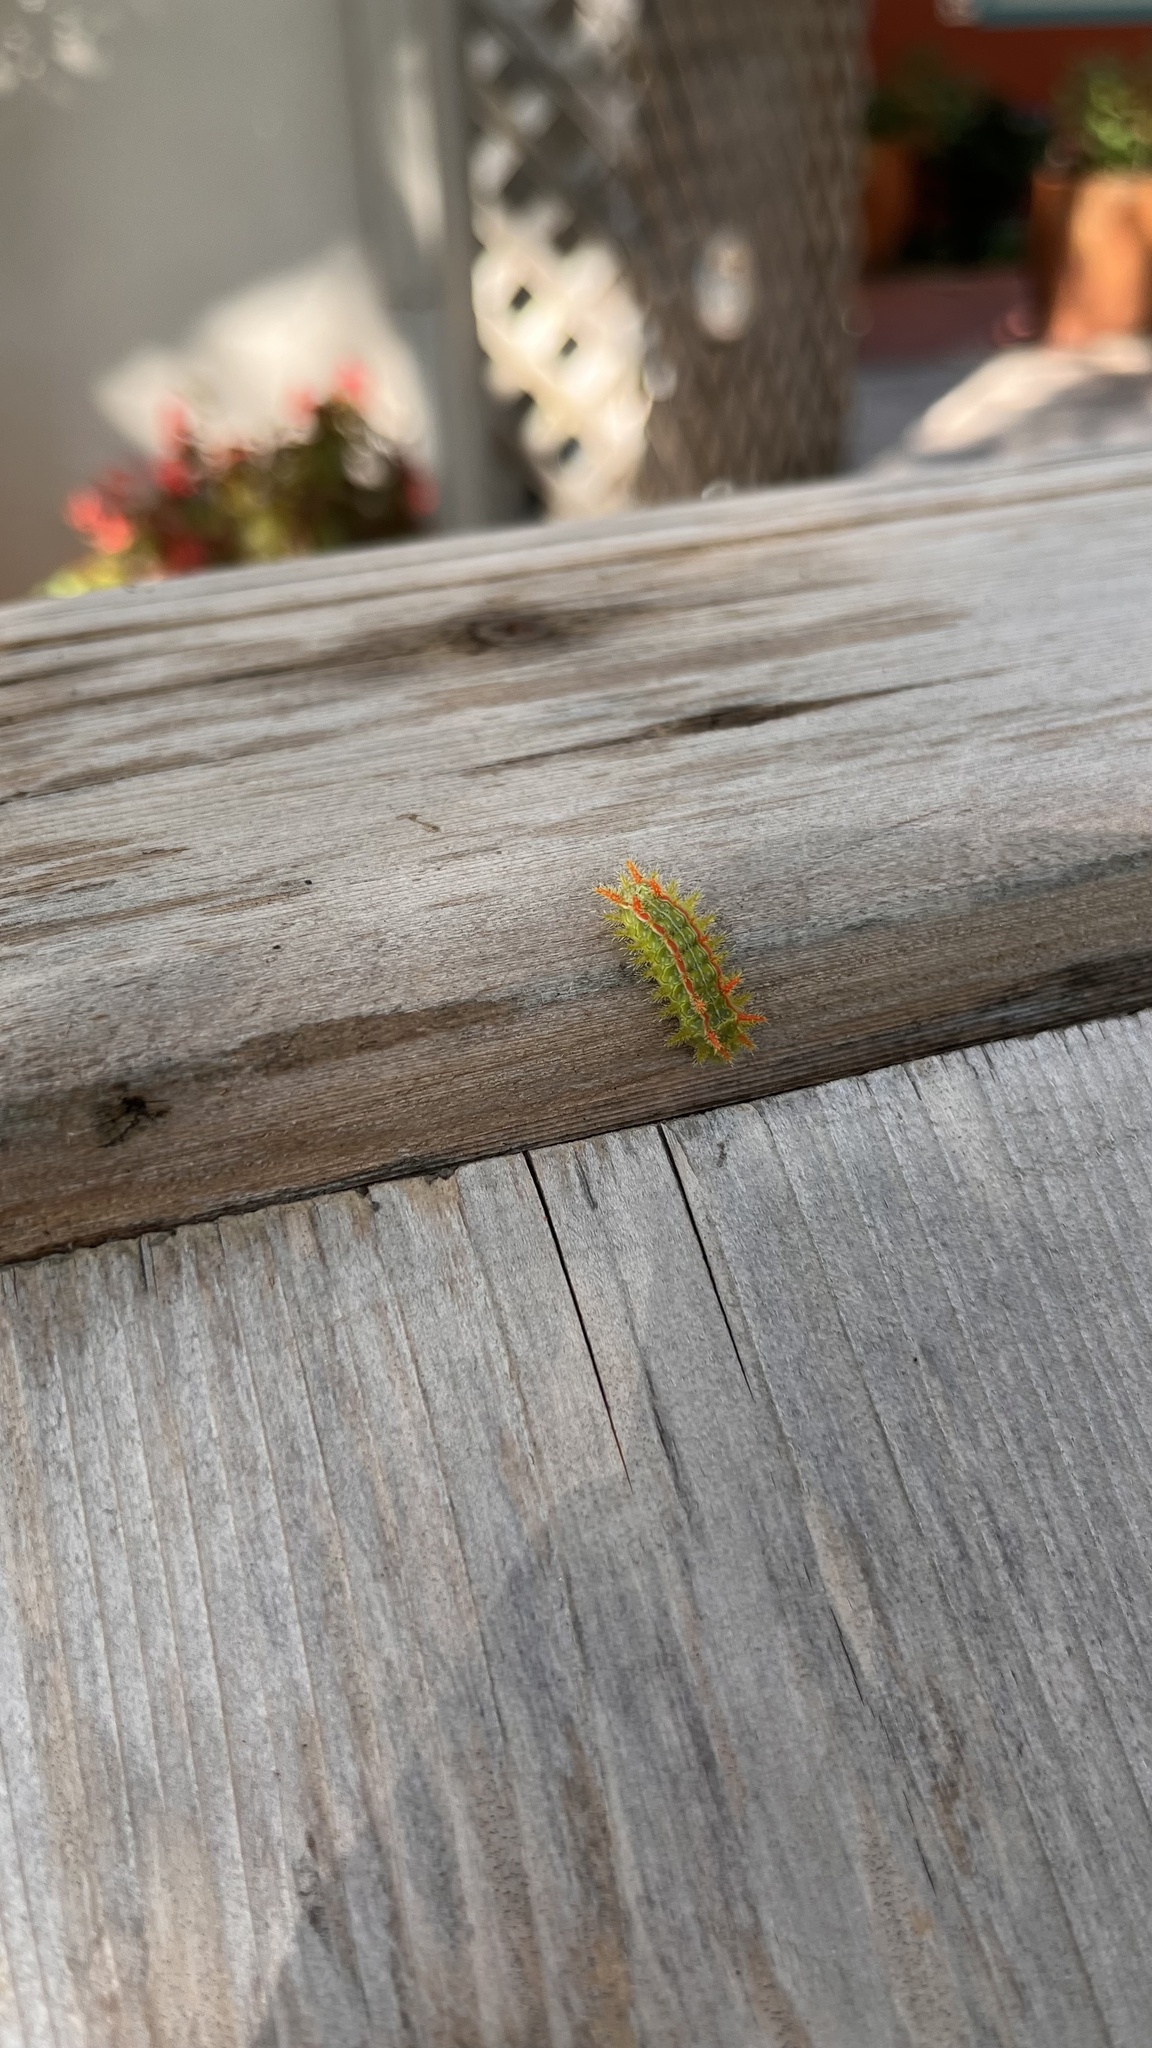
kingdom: Animalia
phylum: Arthropoda
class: Insecta
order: Lepidoptera
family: Limacodidae
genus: Euclea
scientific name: Euclea incisa
